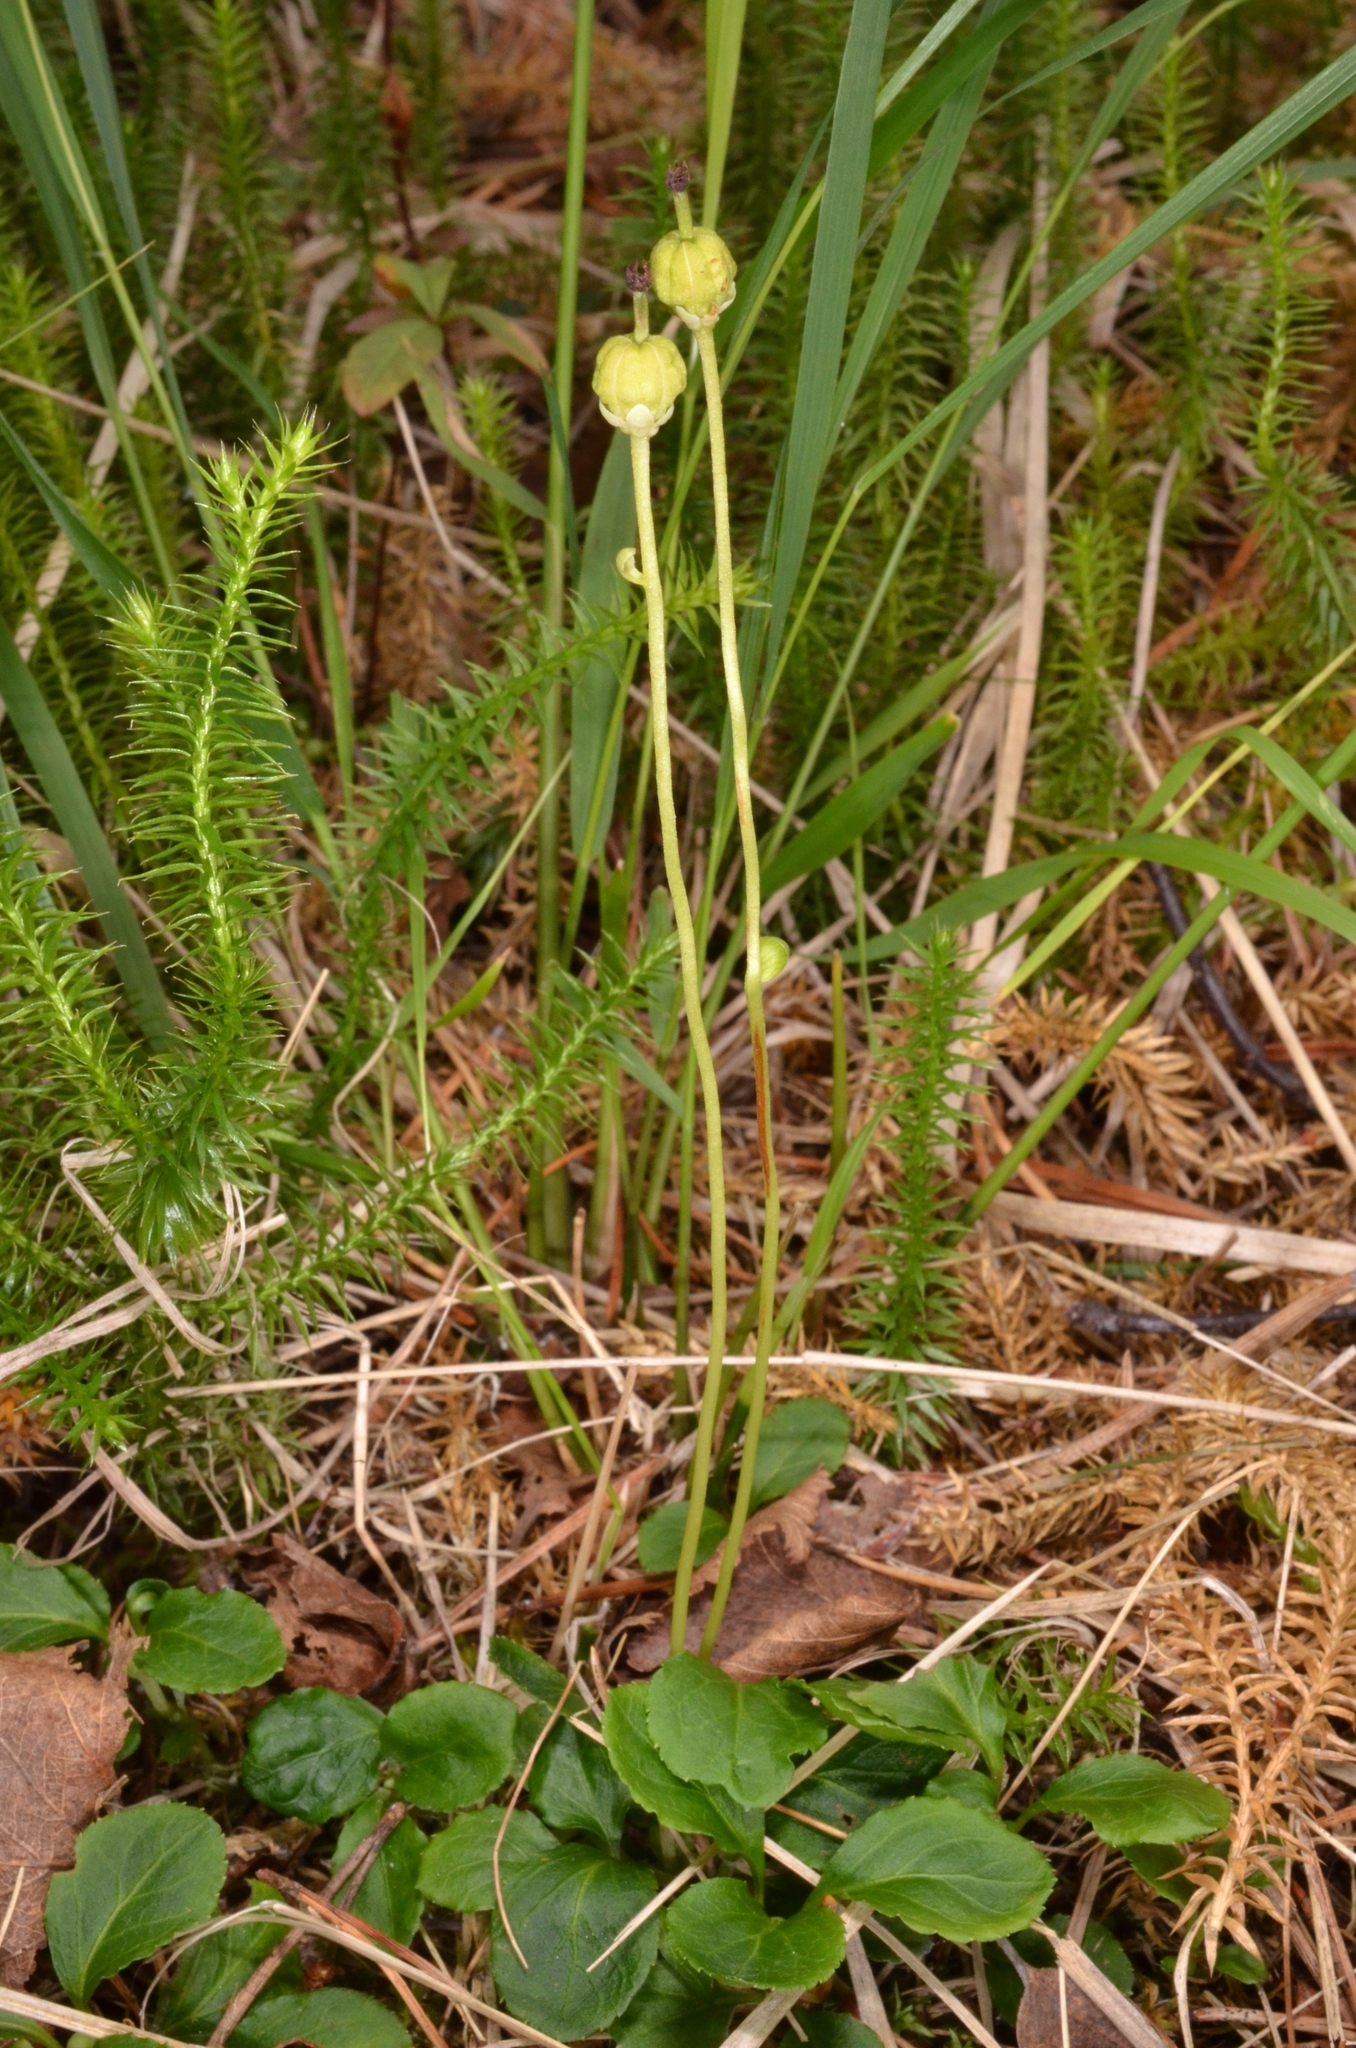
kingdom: Plantae
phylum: Tracheophyta
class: Magnoliopsida
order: Ericales
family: Ericaceae
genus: Moneses
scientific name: Moneses uniflora
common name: One-flowered wintergreen
